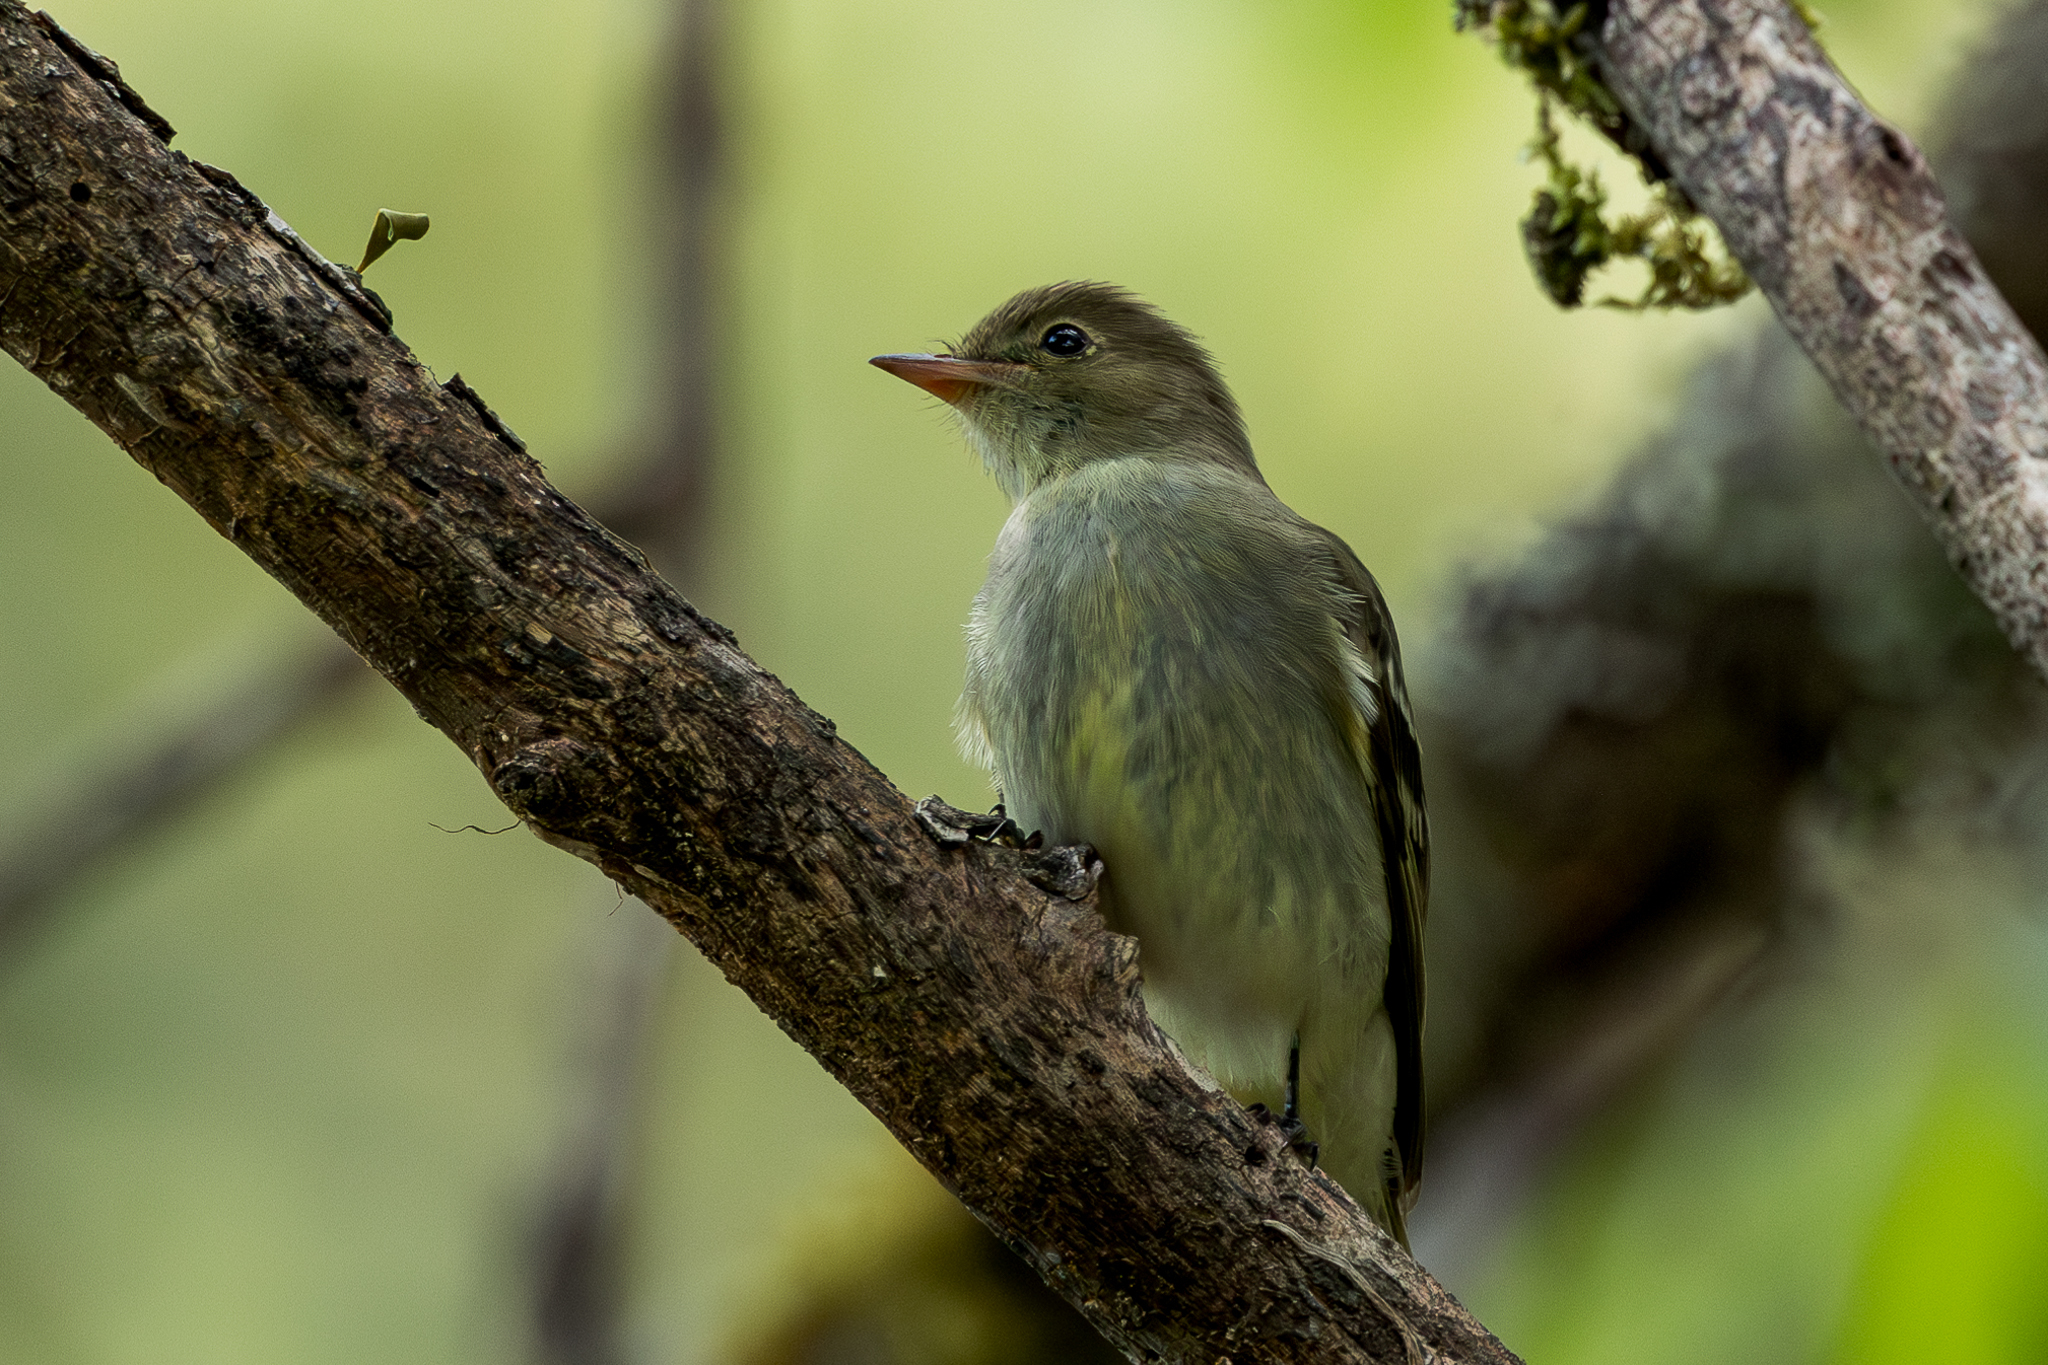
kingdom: Animalia
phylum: Chordata
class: Aves
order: Passeriformes
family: Tyrannidae
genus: Elaenia
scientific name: Elaenia frantzii
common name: Mountain elaenia
